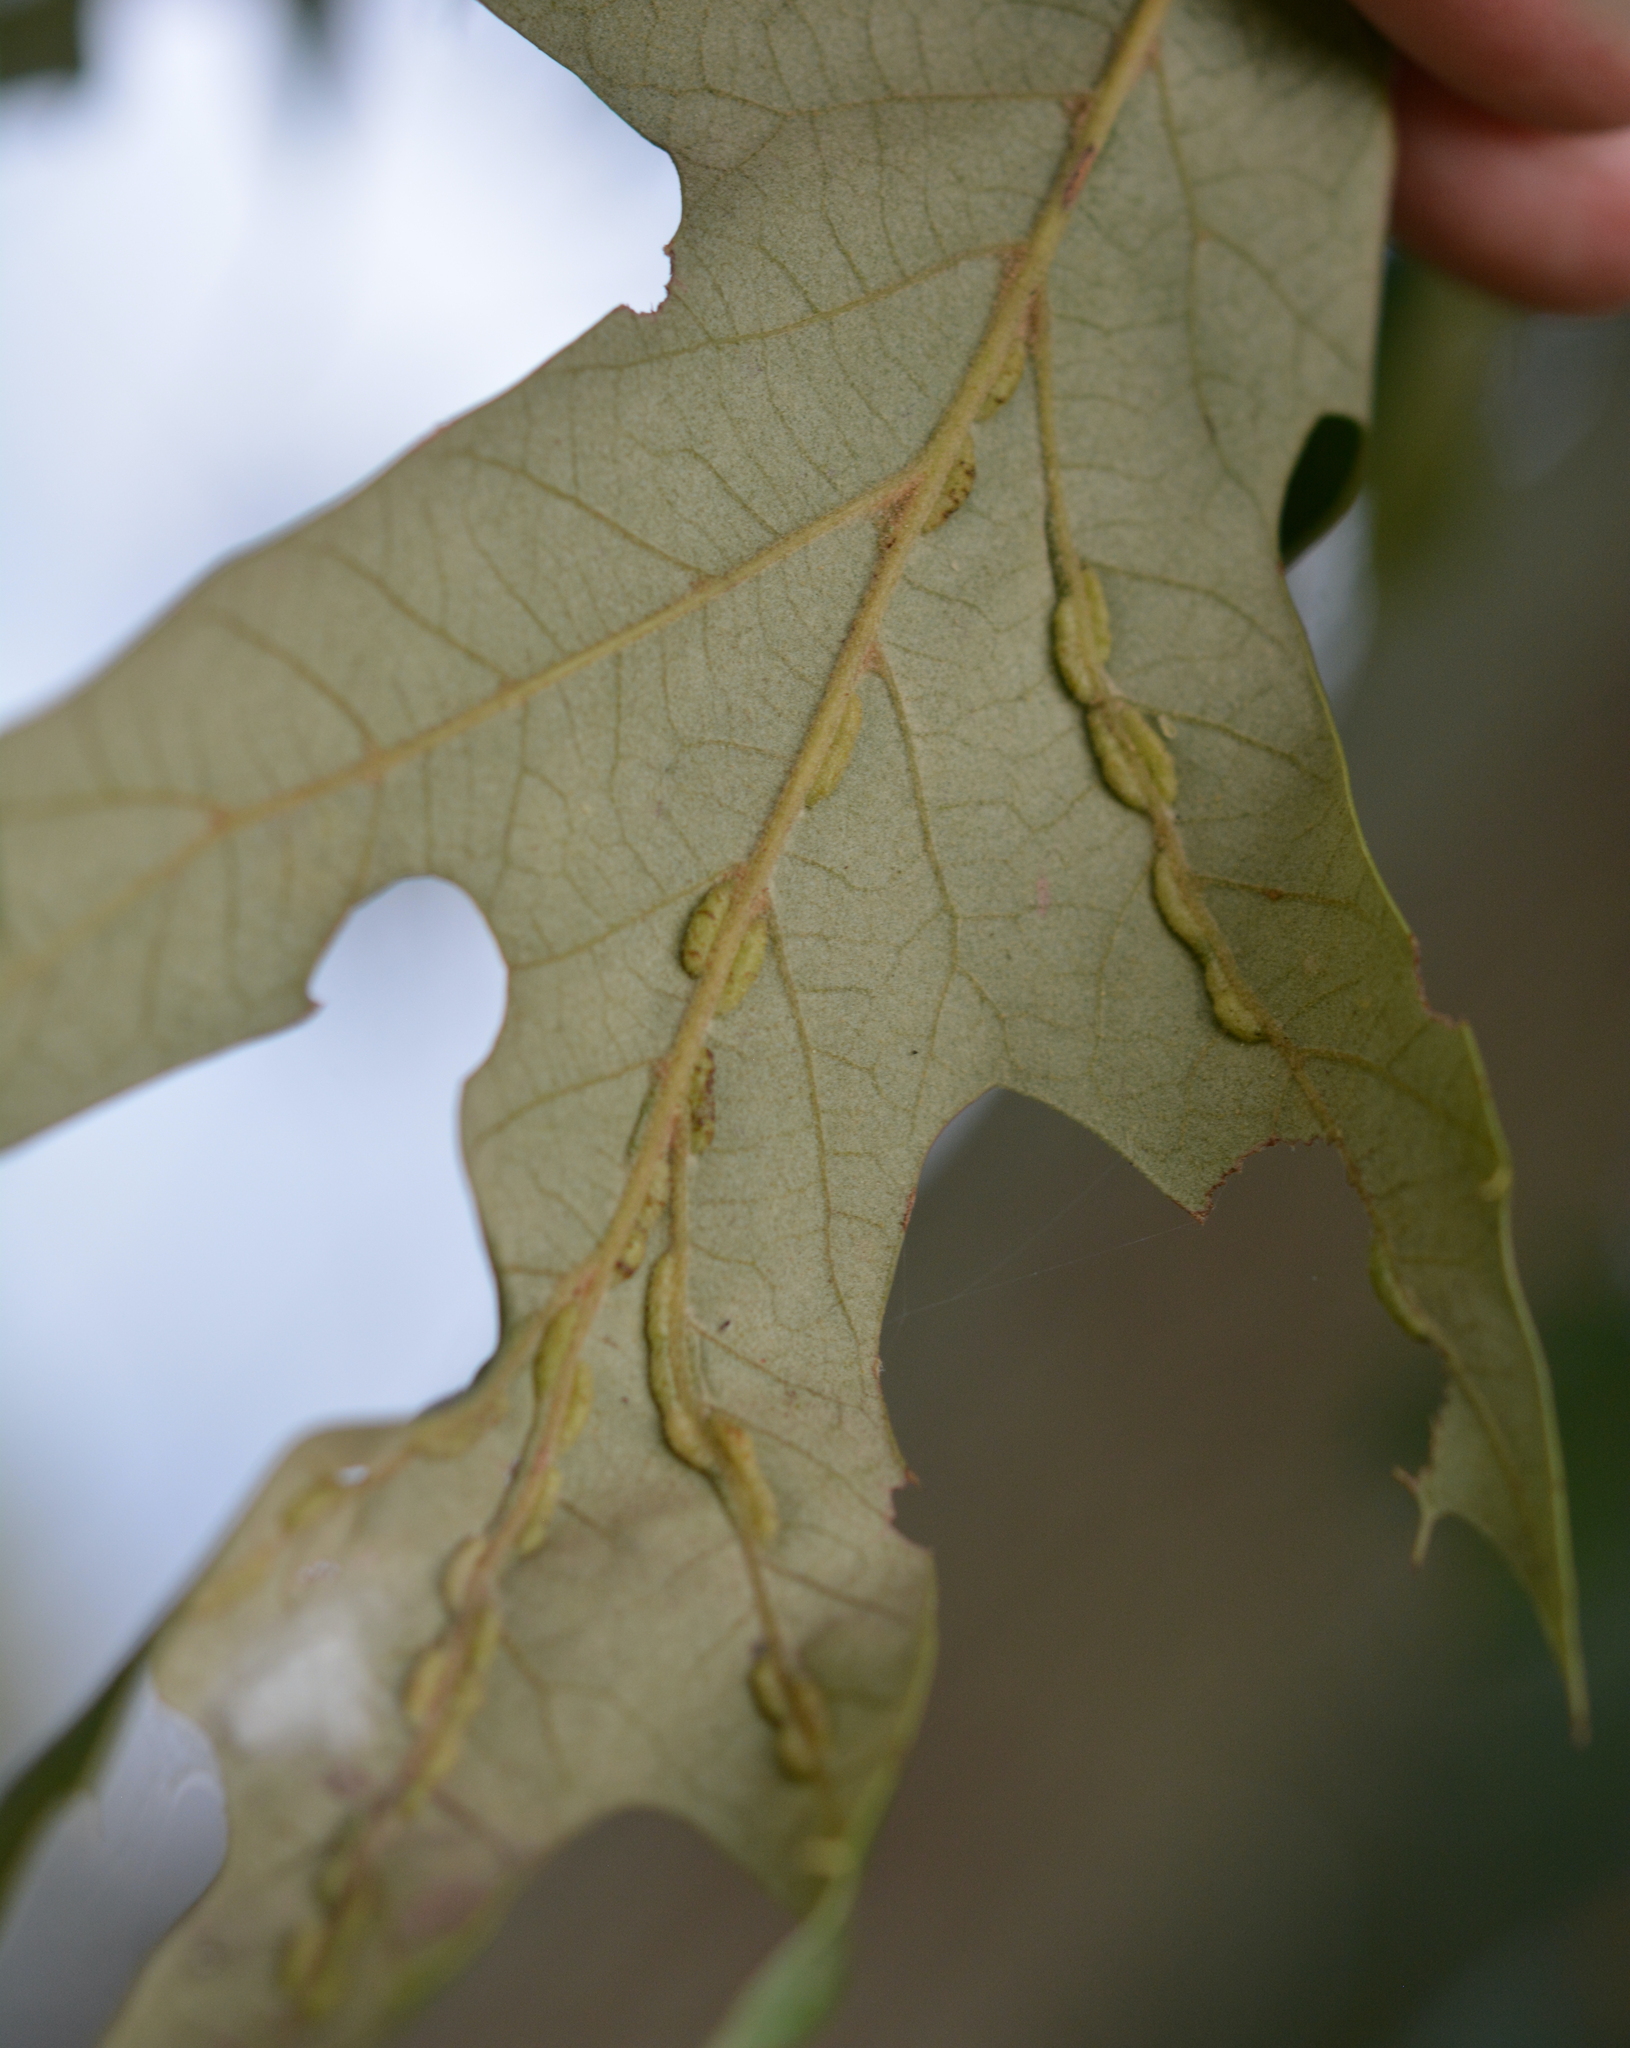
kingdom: Animalia
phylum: Arthropoda
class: Insecta
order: Diptera
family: Cecidomyiidae
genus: Macrodiplosis
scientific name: Macrodiplosis q-orucum
